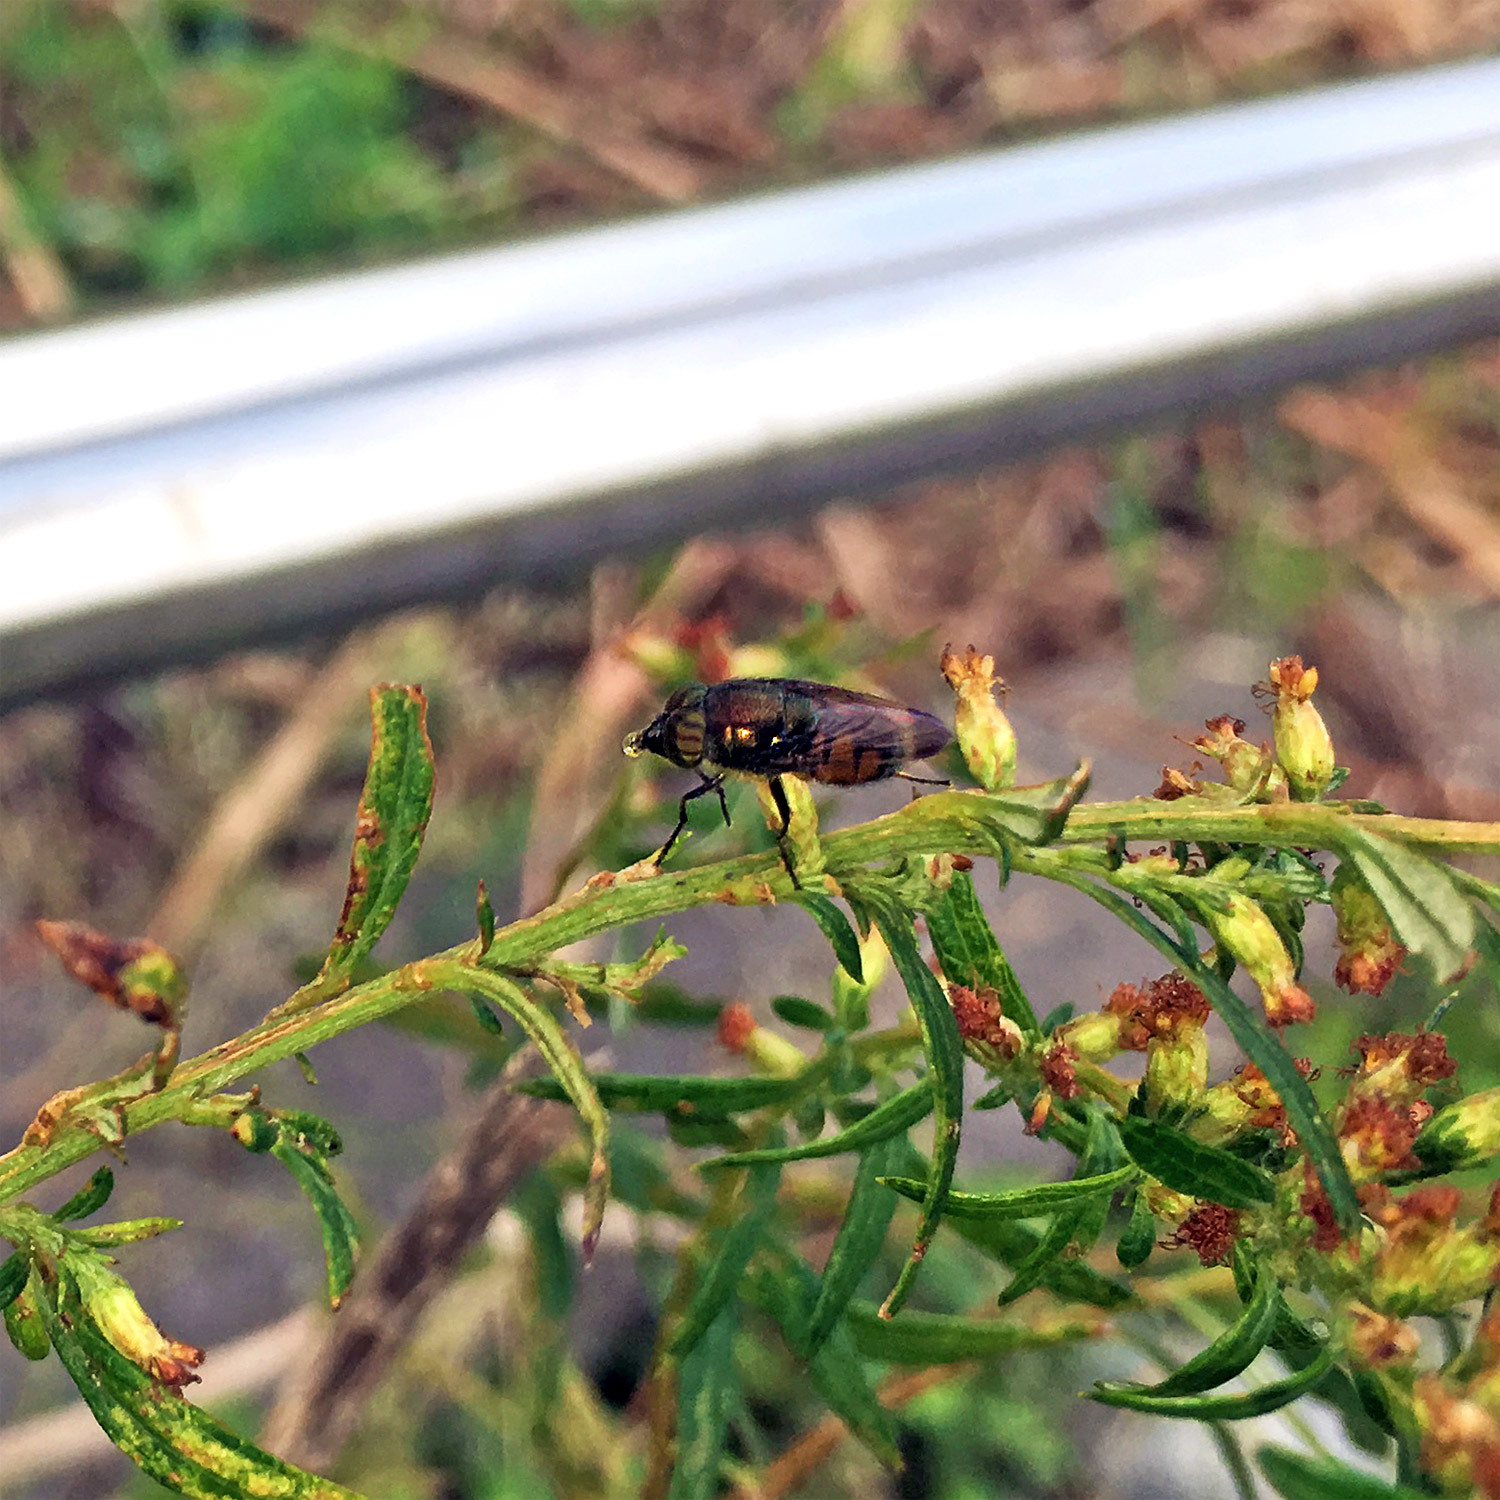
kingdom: Animalia
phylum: Arthropoda
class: Insecta
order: Diptera
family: Calliphoridae
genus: Rhinia
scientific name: Rhinia obsoleta
